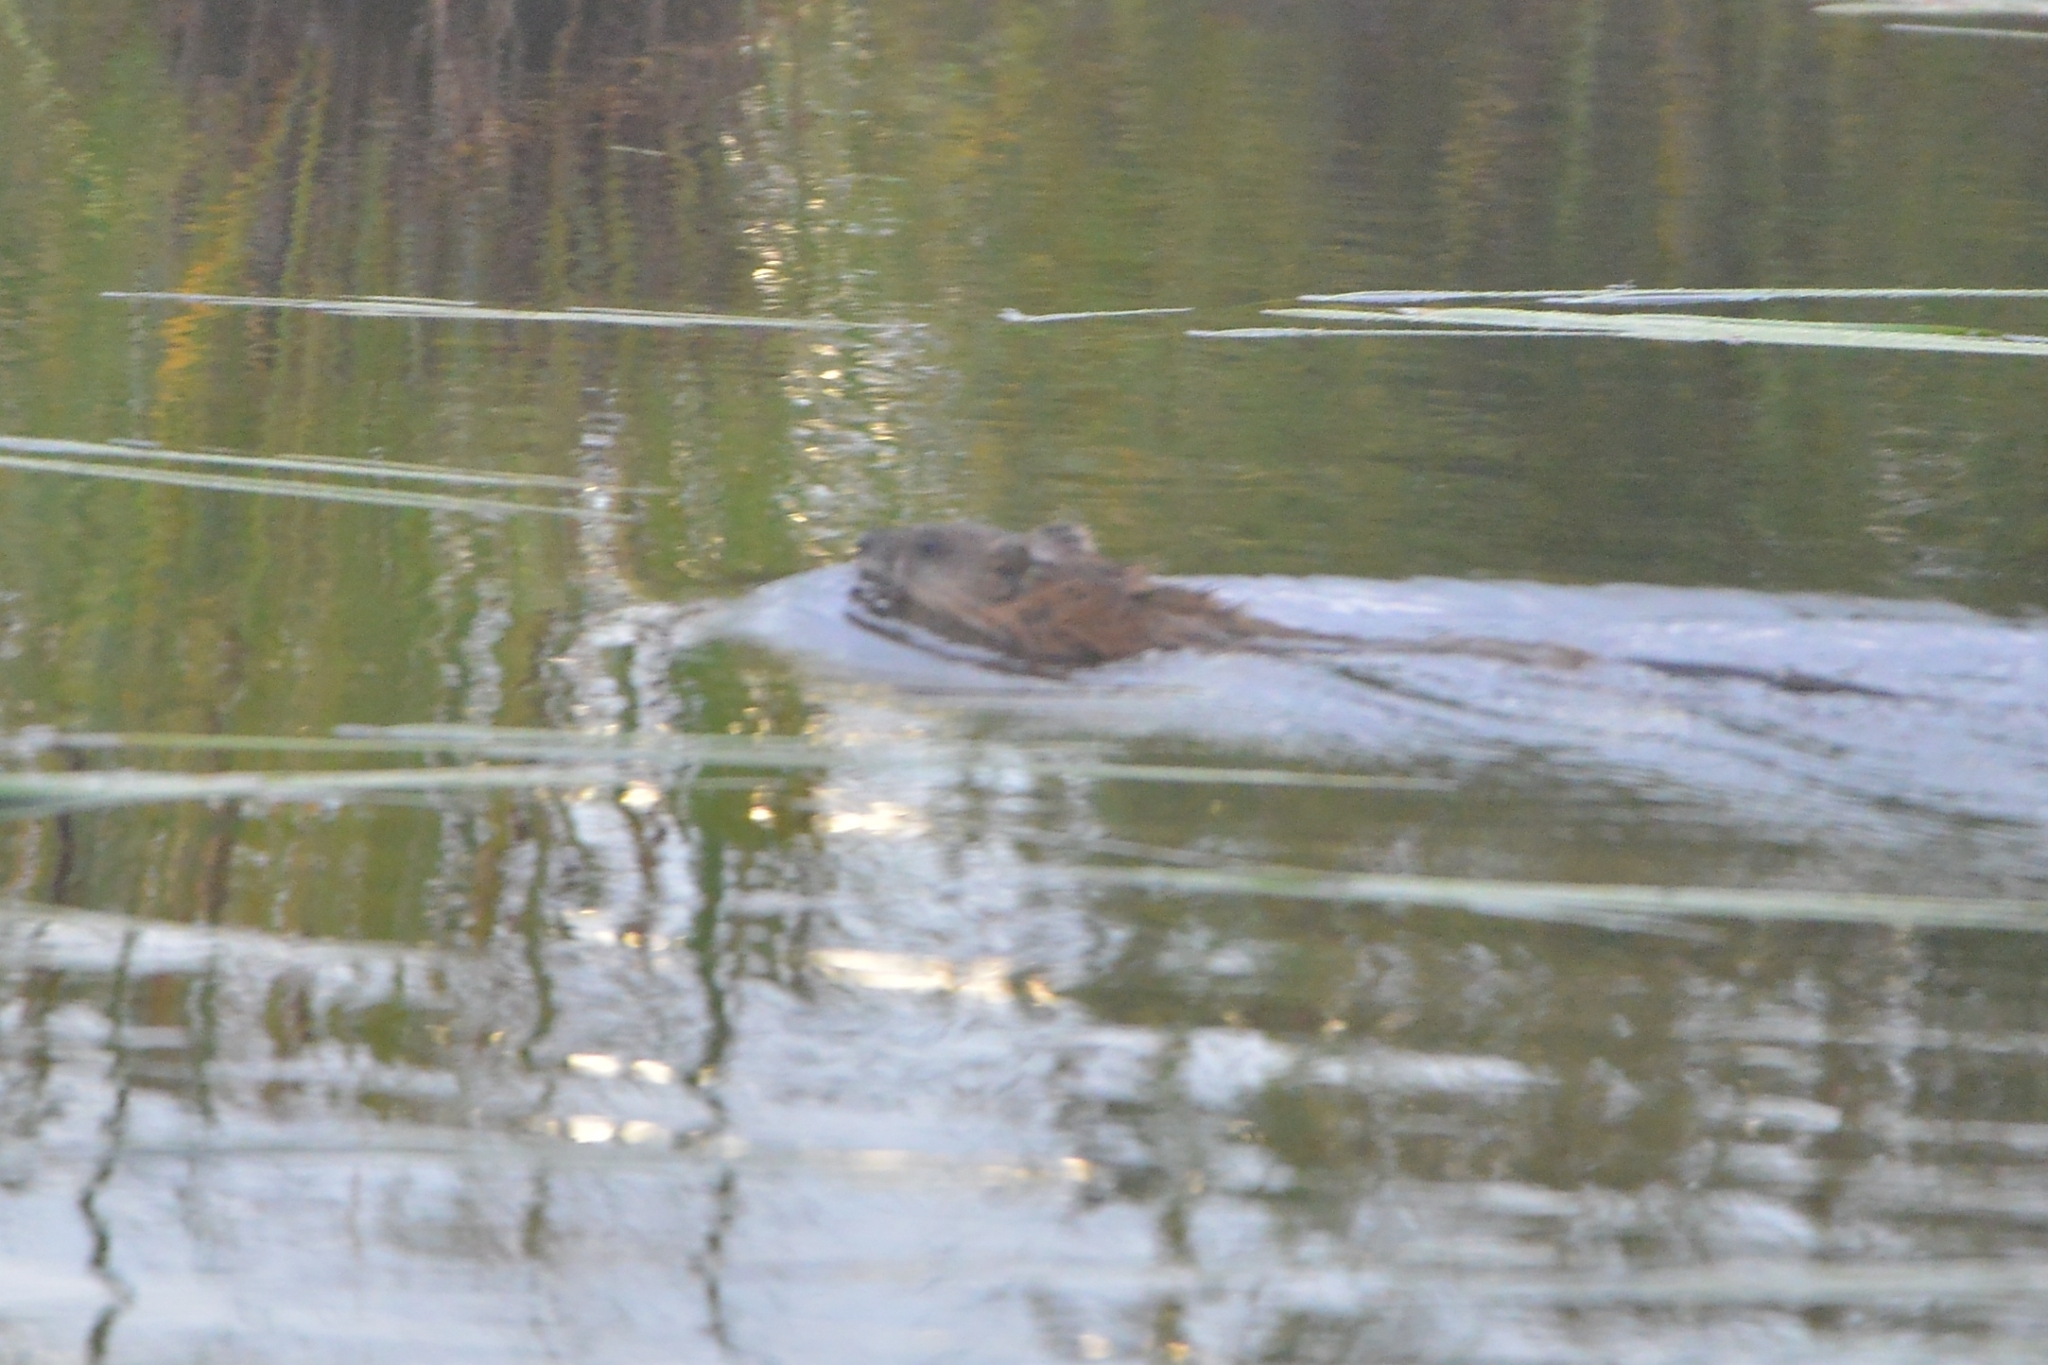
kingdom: Animalia
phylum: Chordata
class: Mammalia
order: Rodentia
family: Cricetidae
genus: Ondatra
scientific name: Ondatra zibethicus
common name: Muskrat
